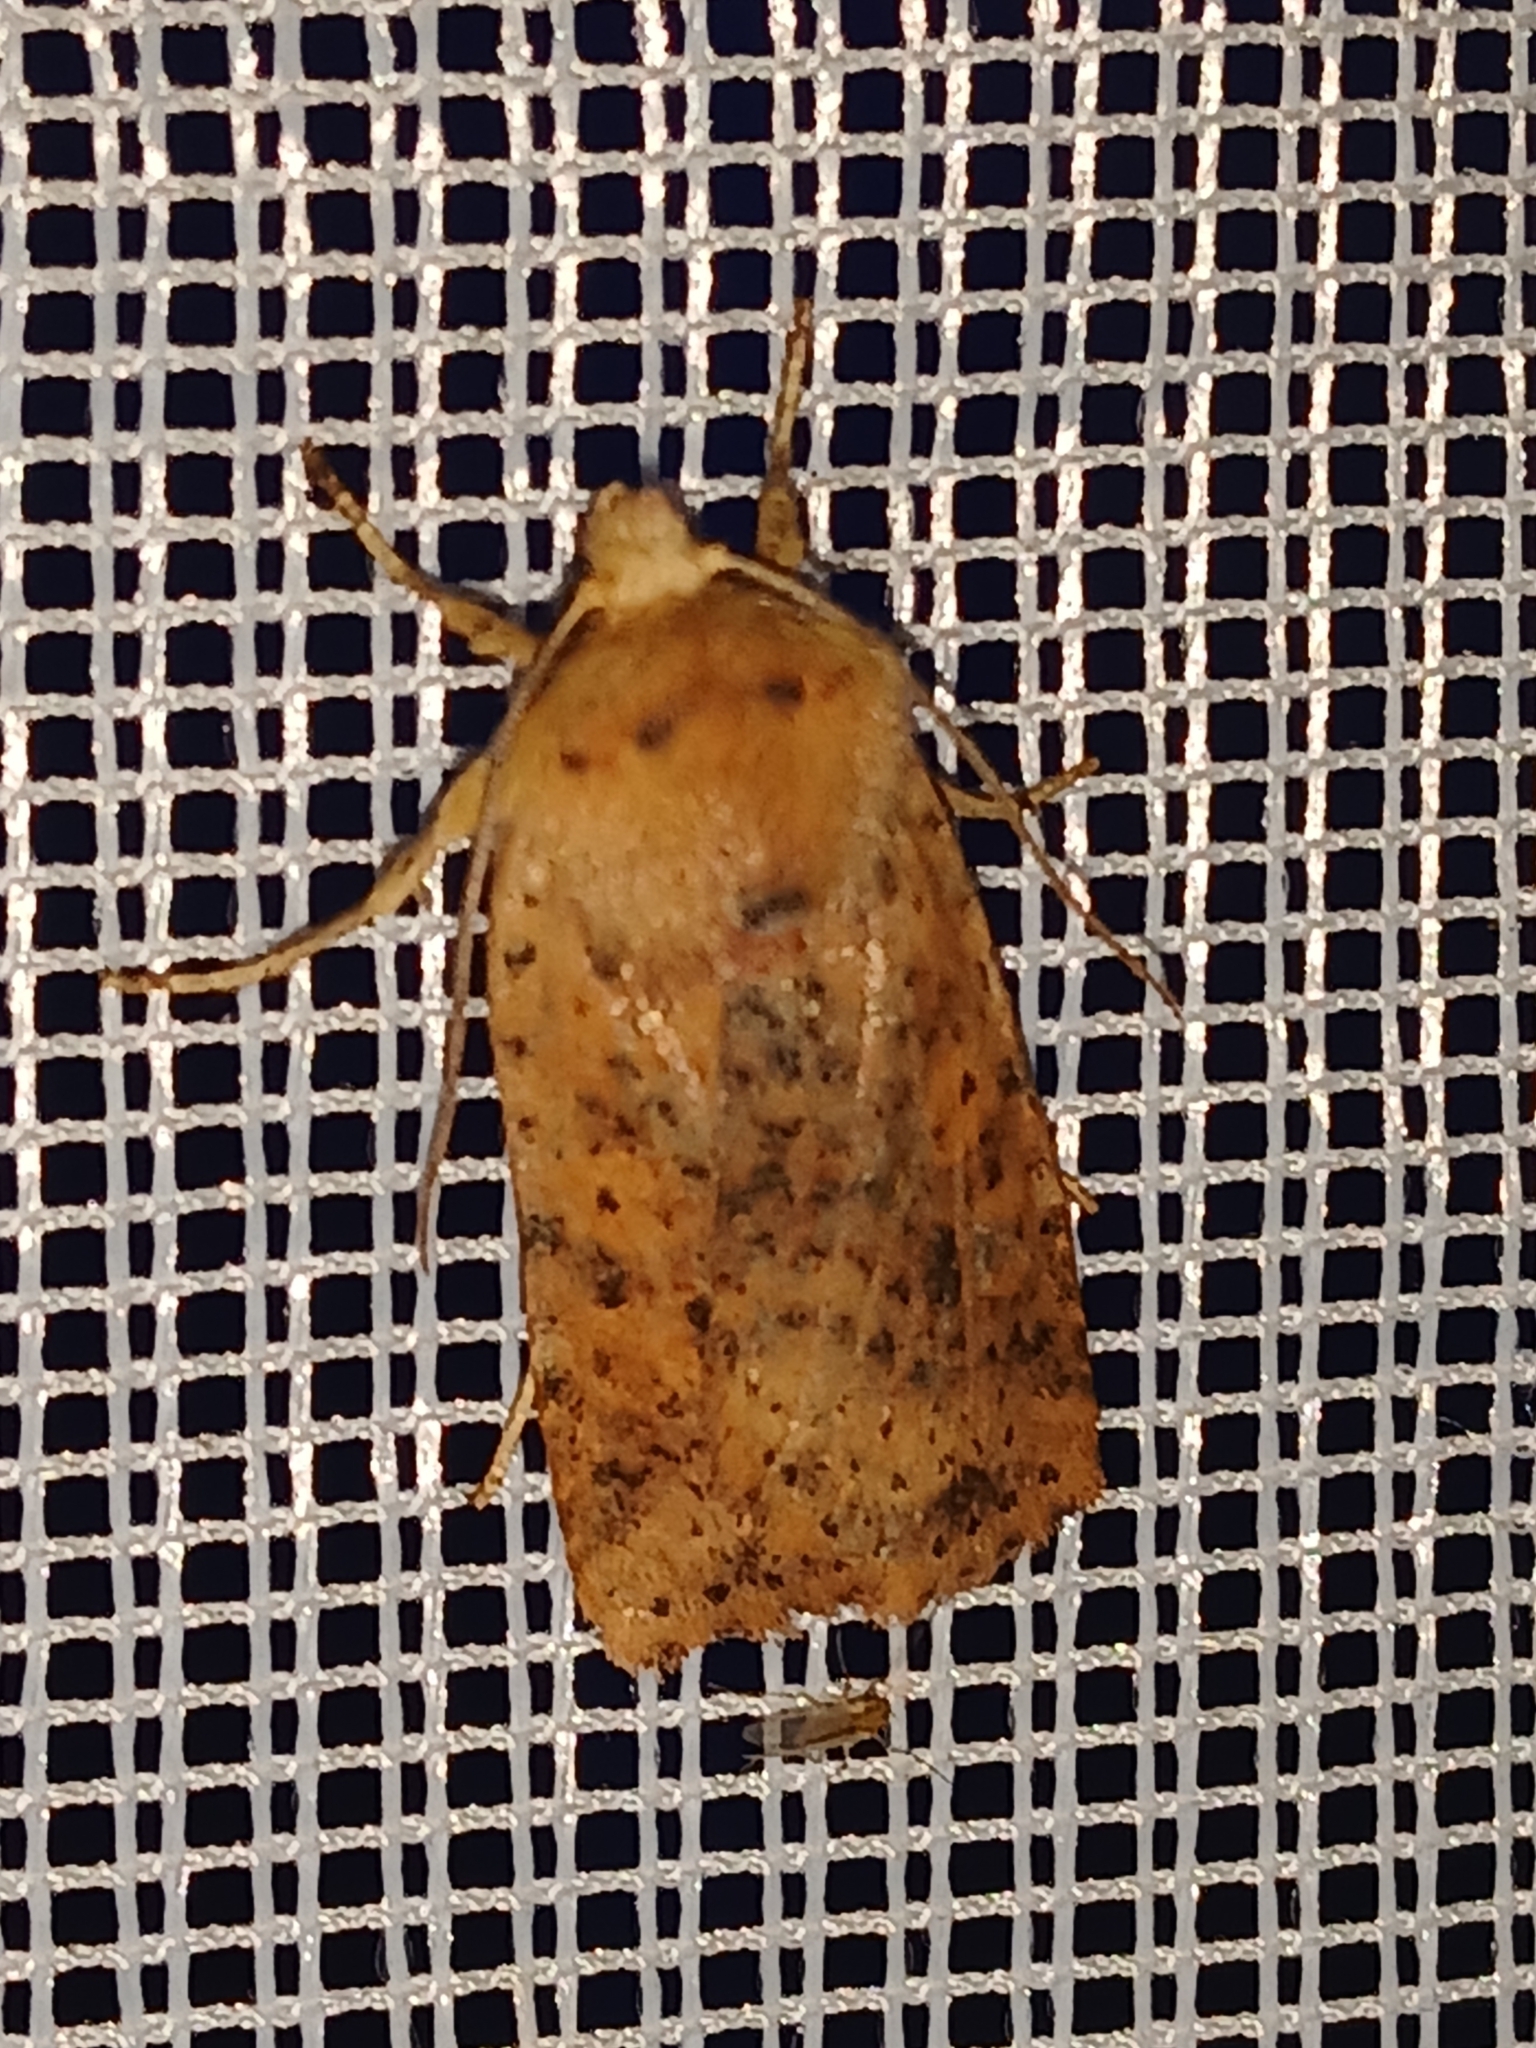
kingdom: Animalia
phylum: Arthropoda
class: Insecta
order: Lepidoptera
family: Noctuidae
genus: Conistra
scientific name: Conistra rubiginea
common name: Dotted chestnut
